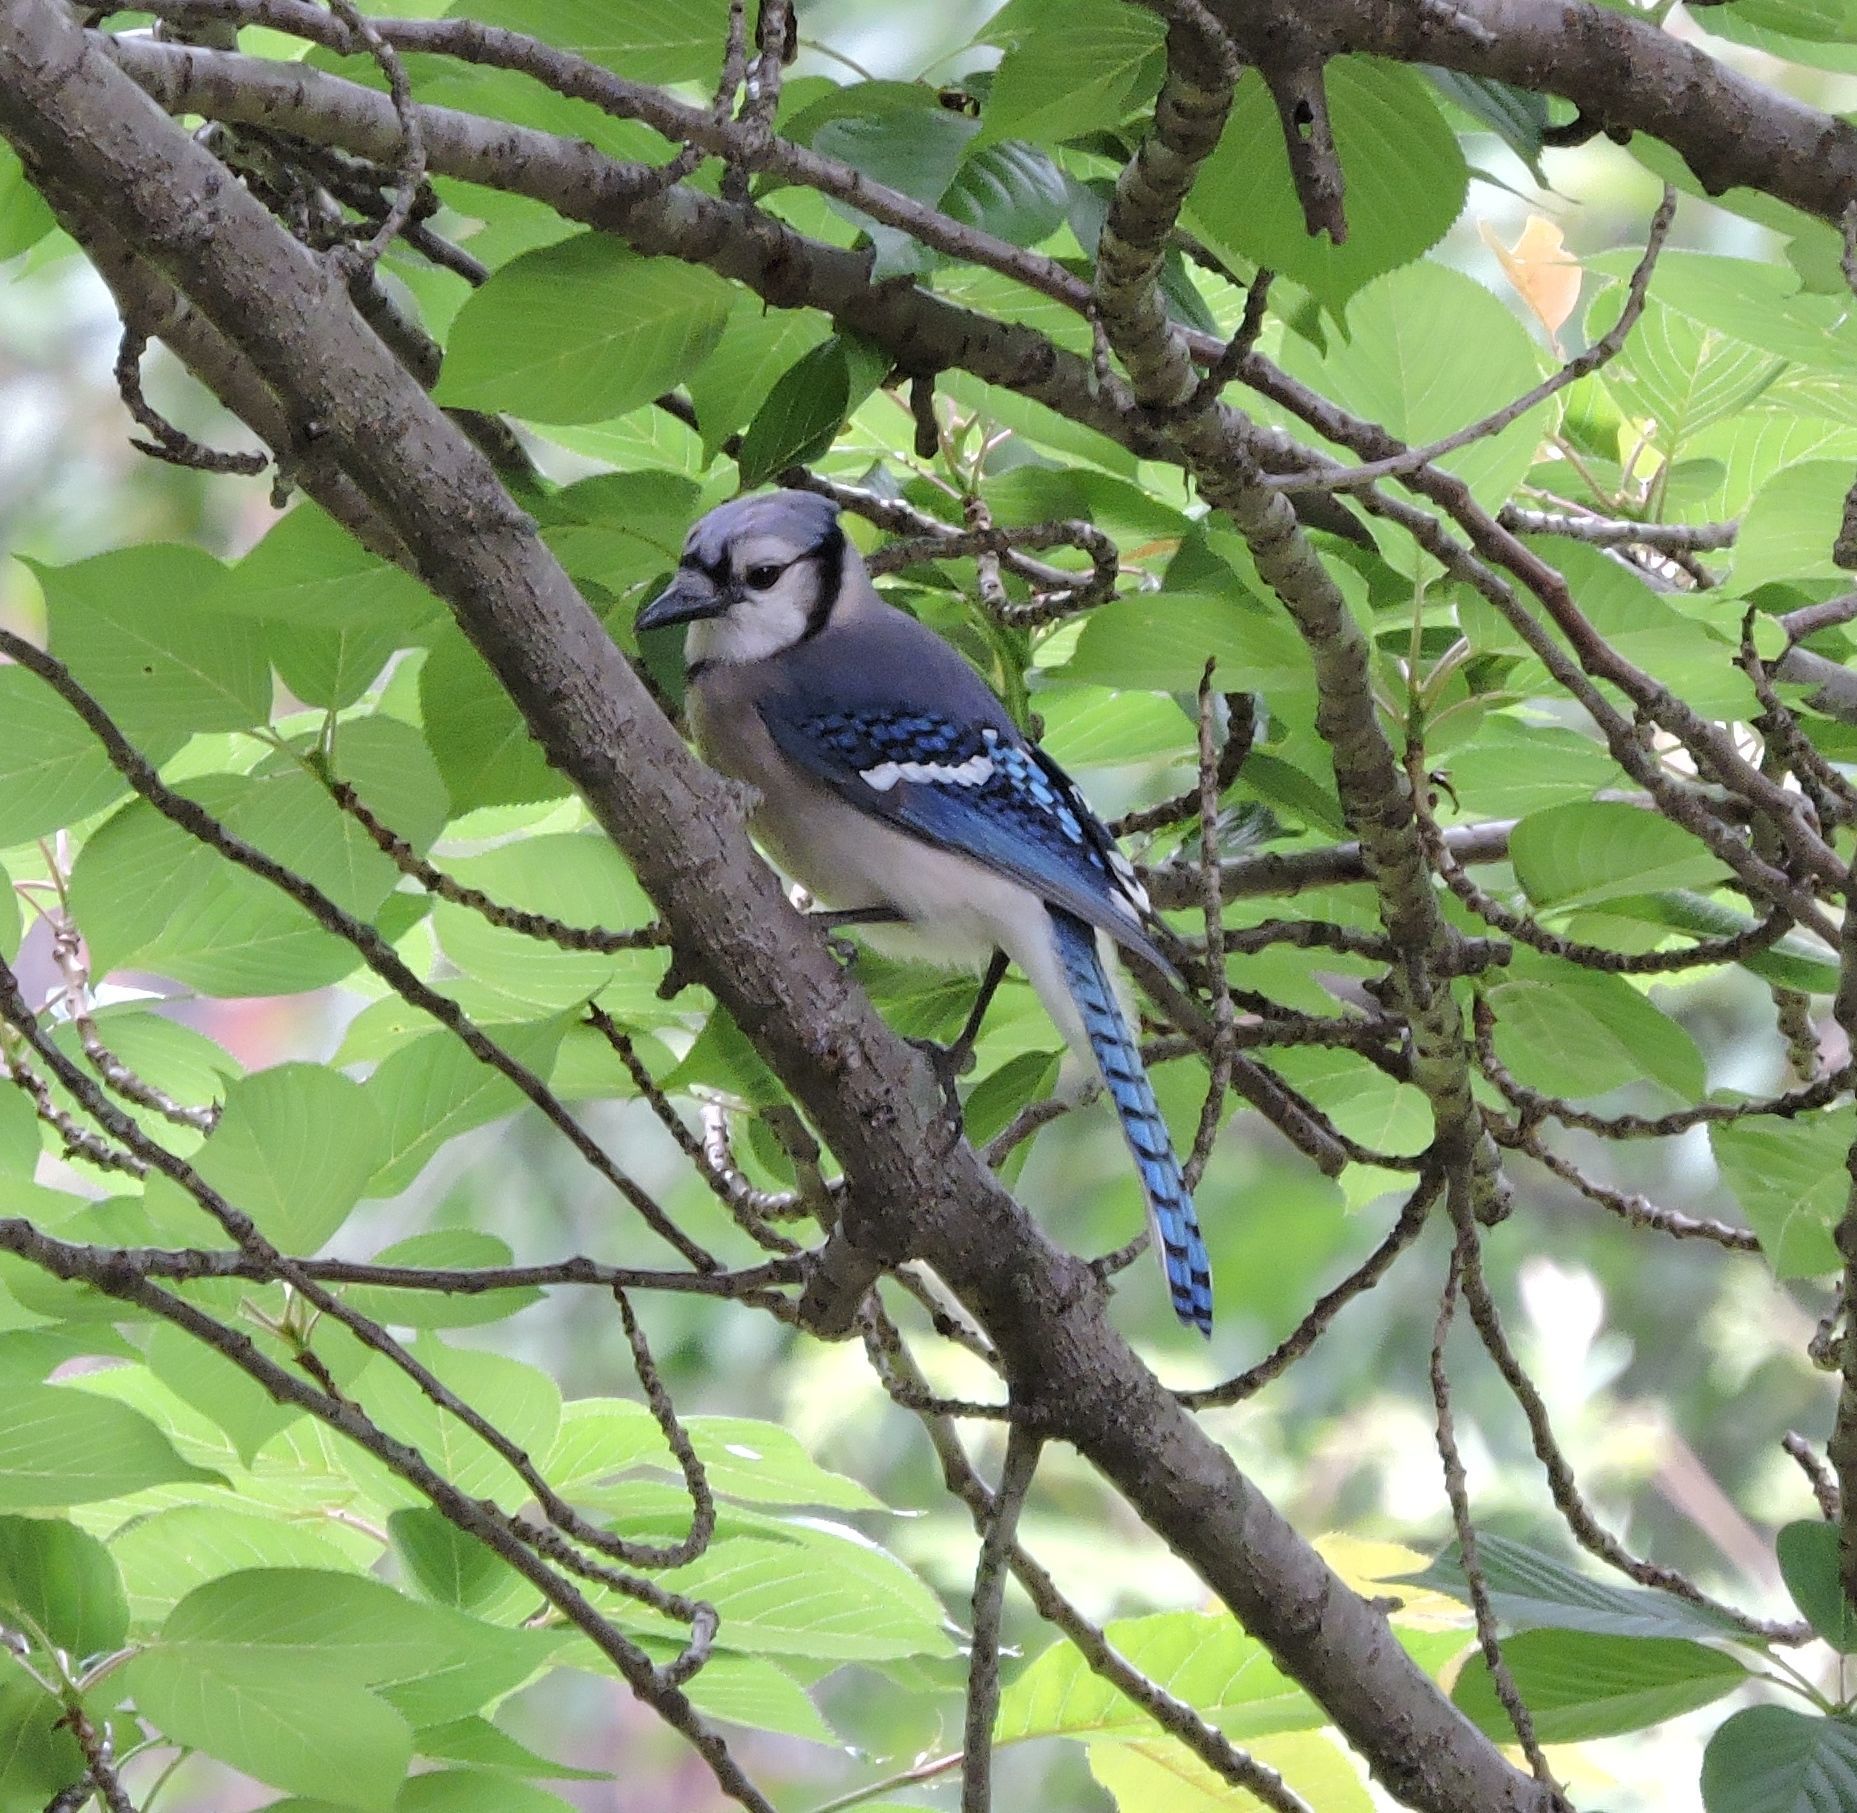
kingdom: Animalia
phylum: Chordata
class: Aves
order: Passeriformes
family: Corvidae
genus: Cyanocitta
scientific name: Cyanocitta cristata
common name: Blue jay
